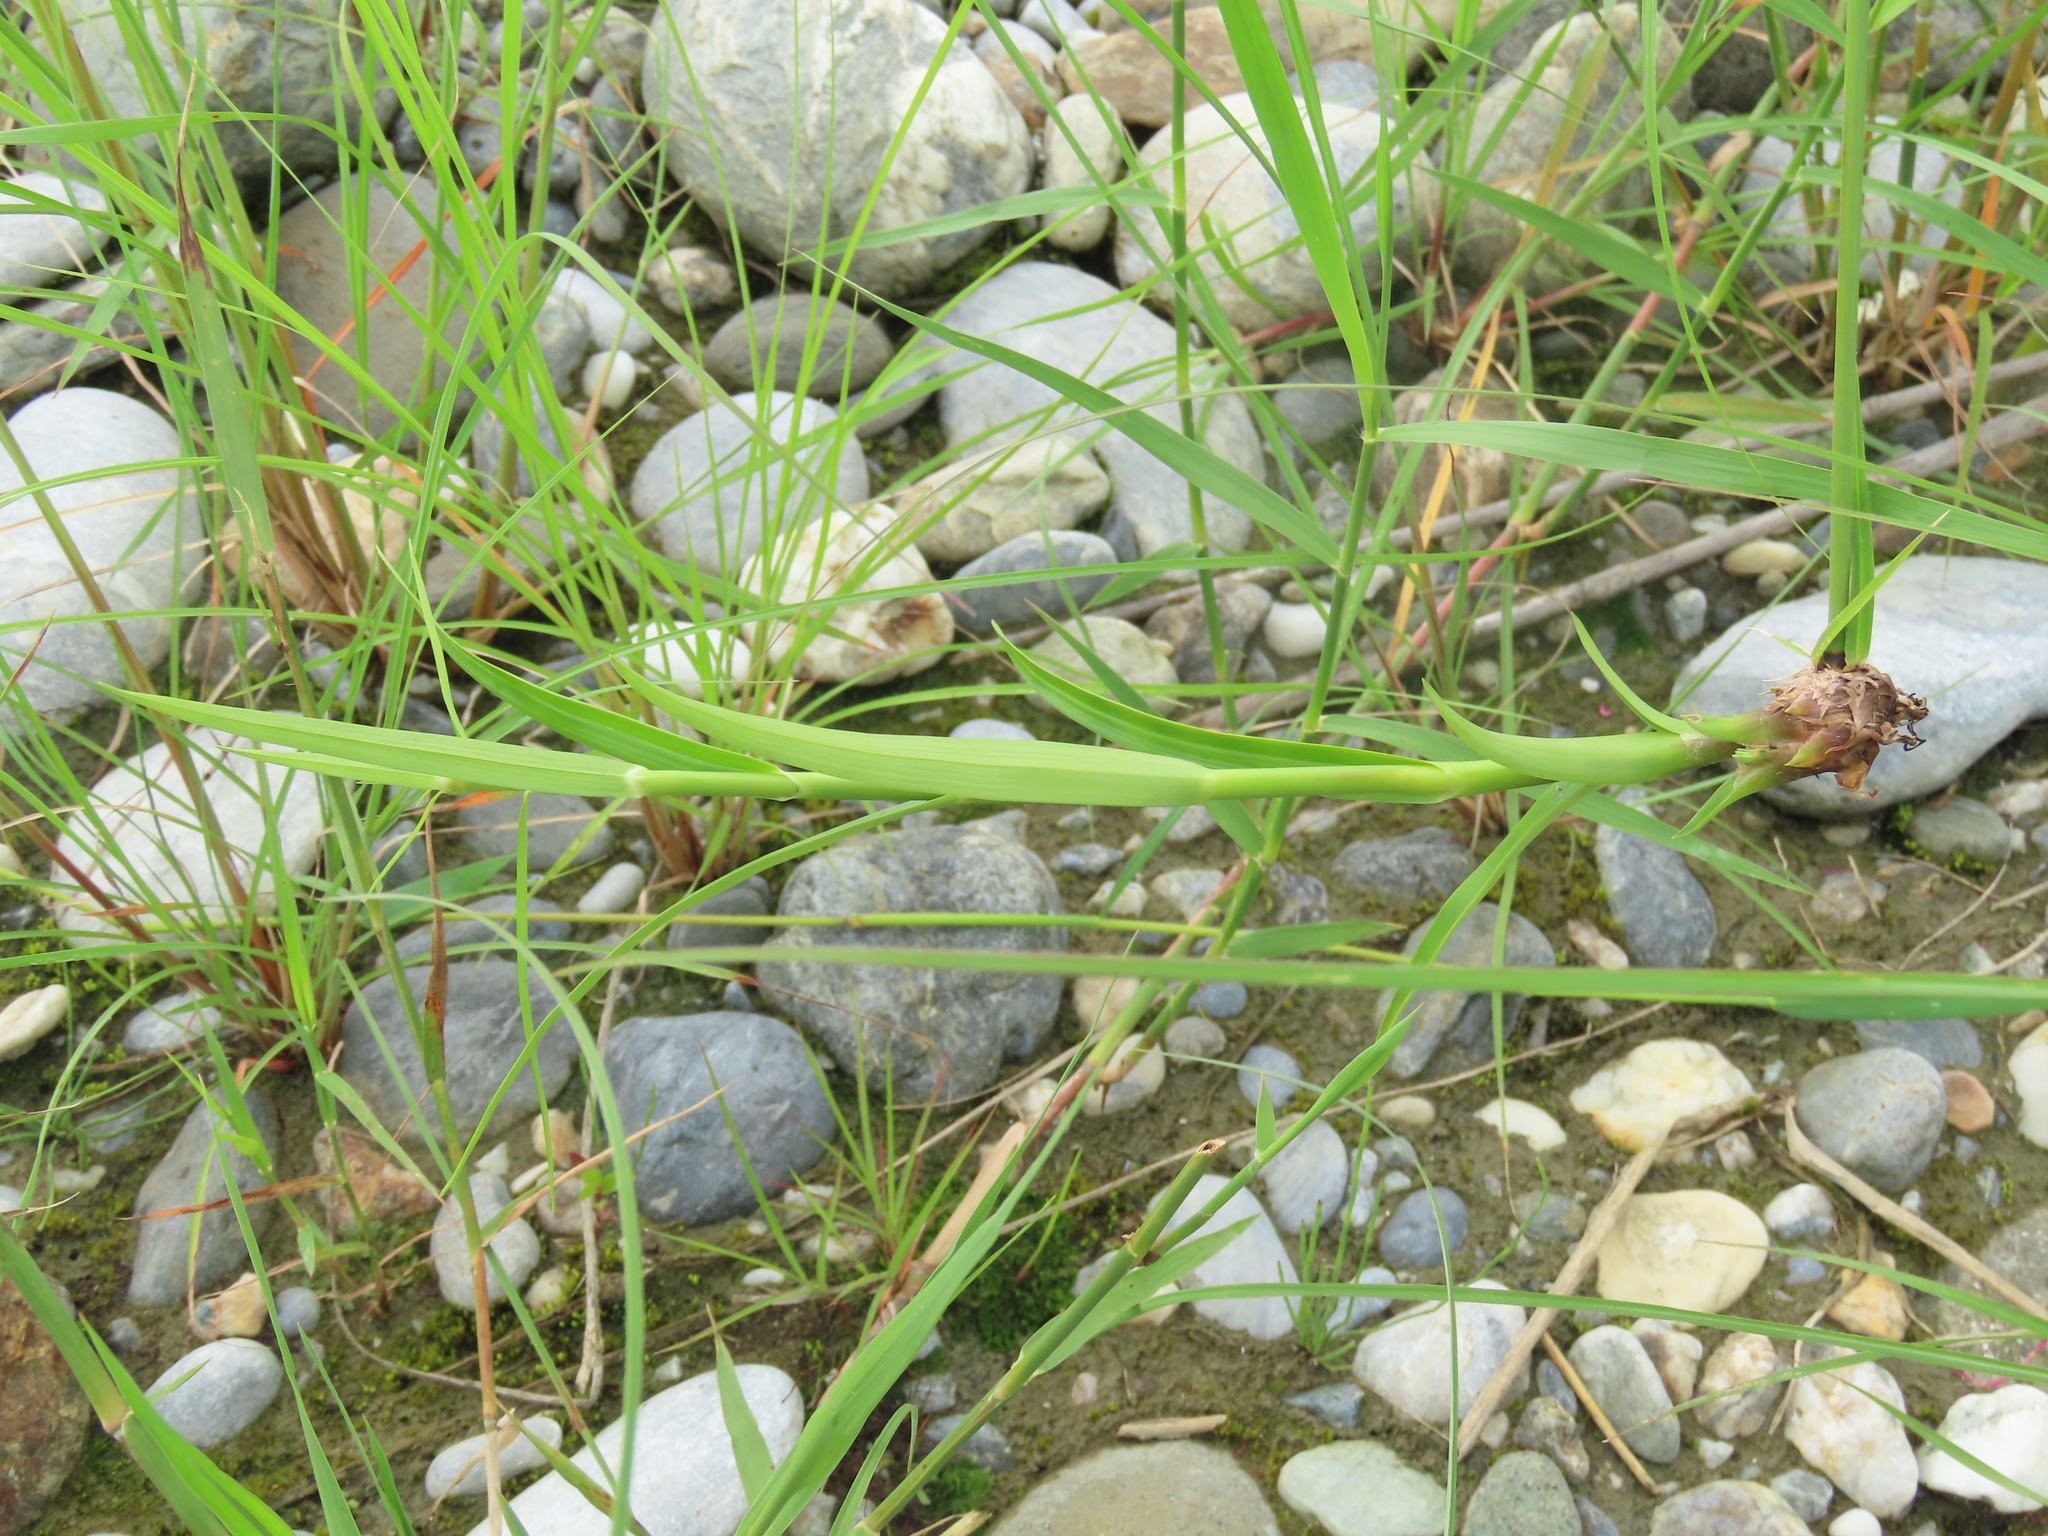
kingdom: Plantae
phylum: Tracheophyta
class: Liliopsida
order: Poales
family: Cyperaceae
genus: Scirpus
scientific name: Scirpus ternatanus
